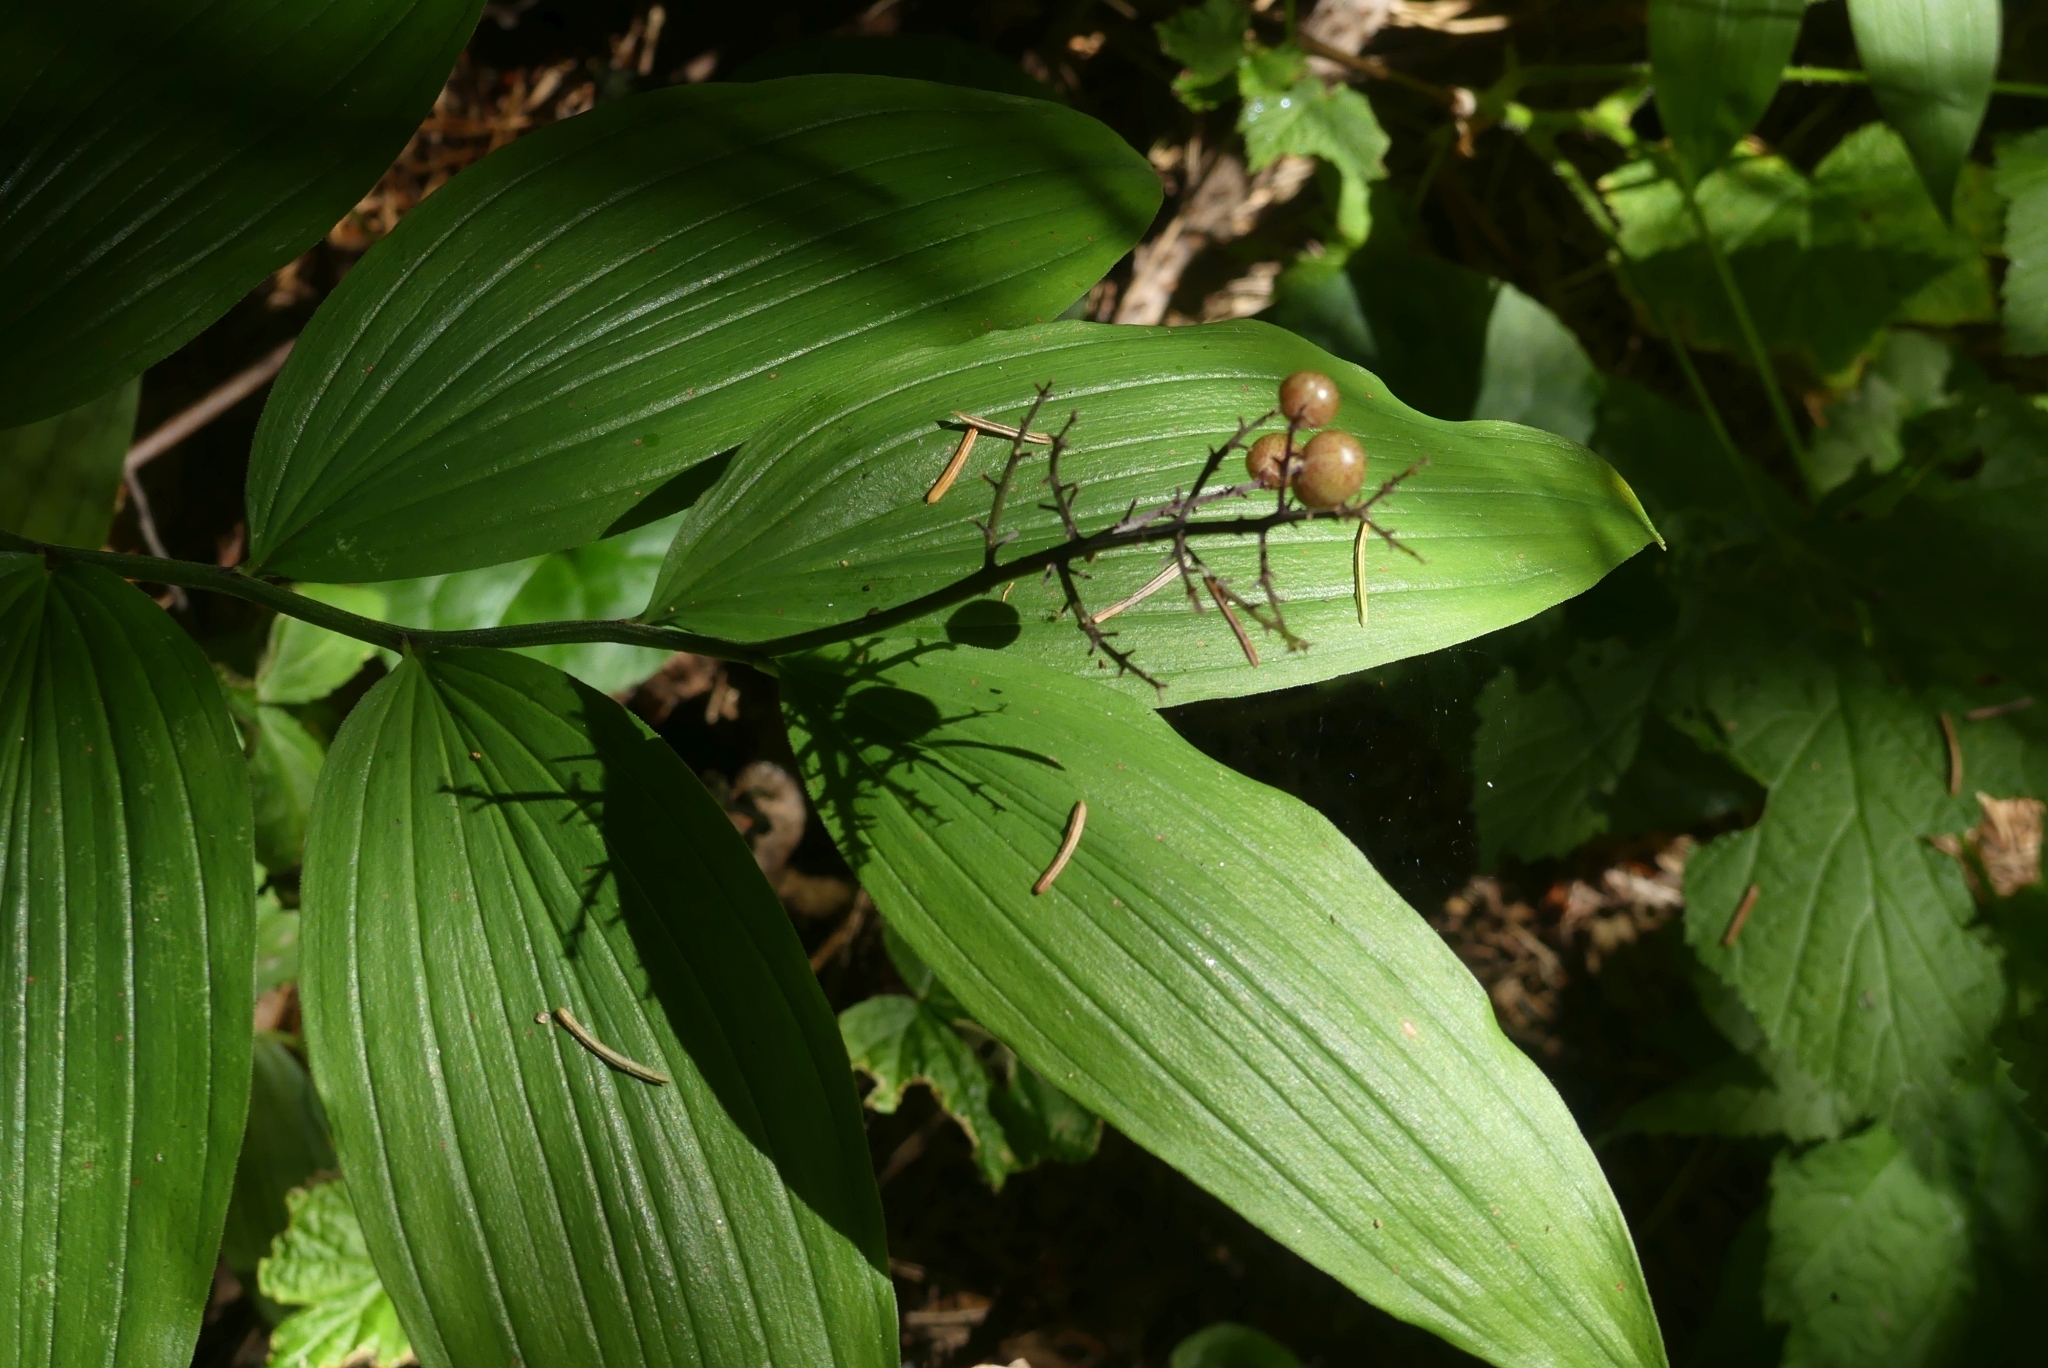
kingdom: Plantae
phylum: Tracheophyta
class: Liliopsida
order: Asparagales
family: Asparagaceae
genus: Maianthemum
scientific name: Maianthemum racemosum
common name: False spikenard
